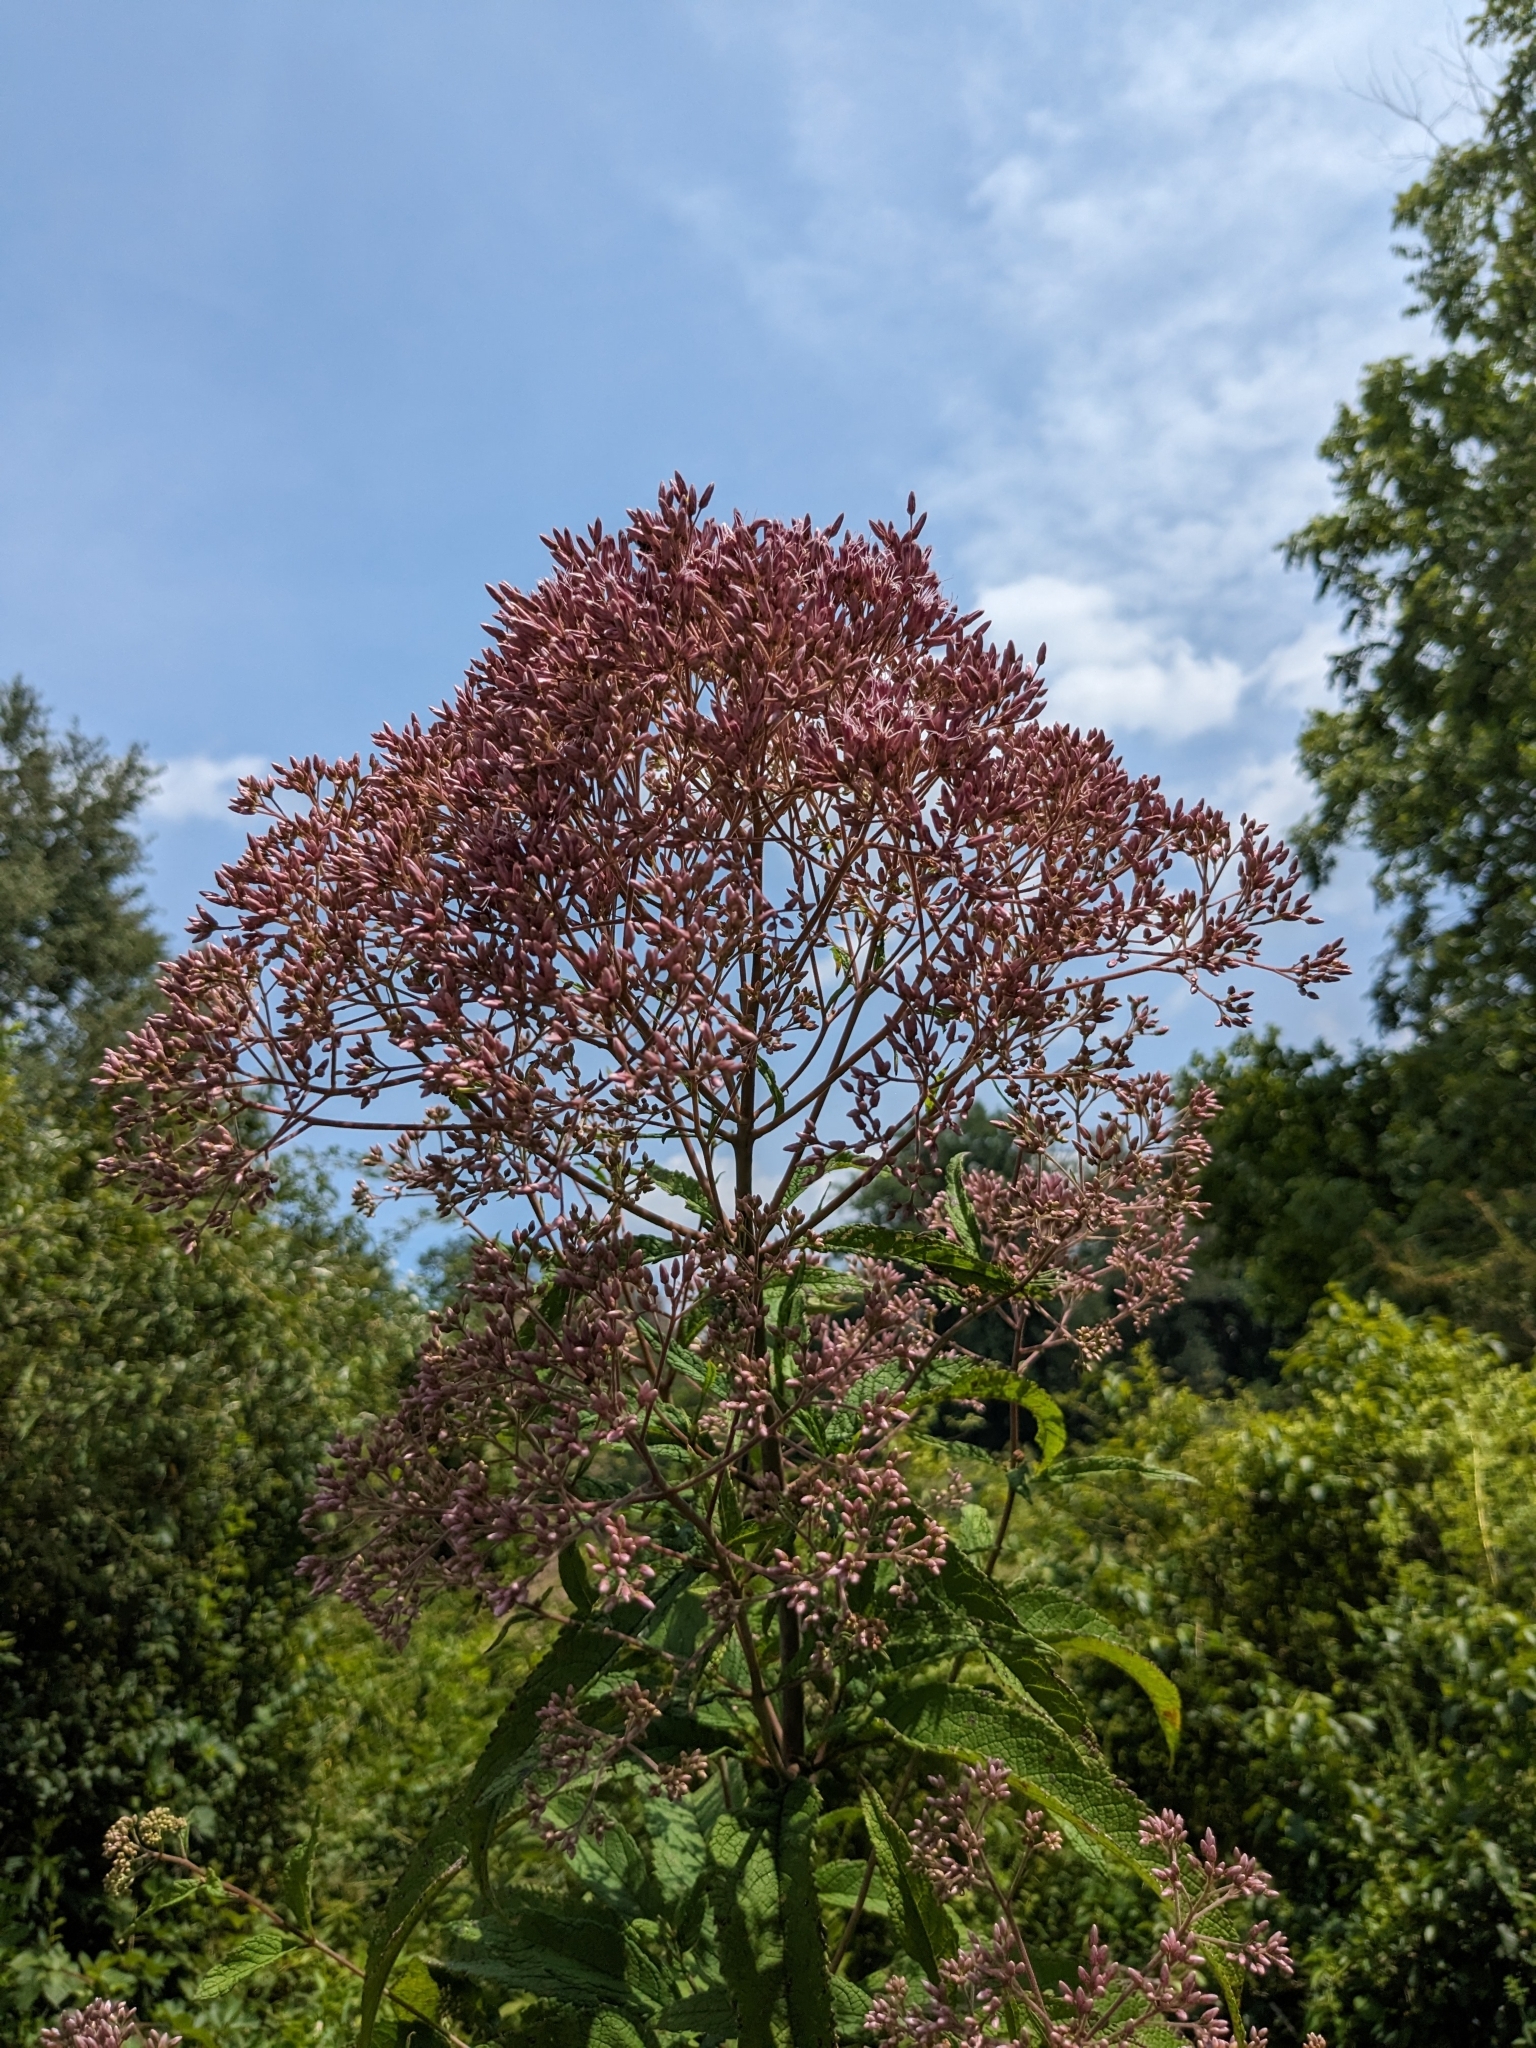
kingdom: Plantae
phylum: Tracheophyta
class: Magnoliopsida
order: Asterales
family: Asteraceae
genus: Eutrochium
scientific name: Eutrochium fistulosum
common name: Trumpetweed
